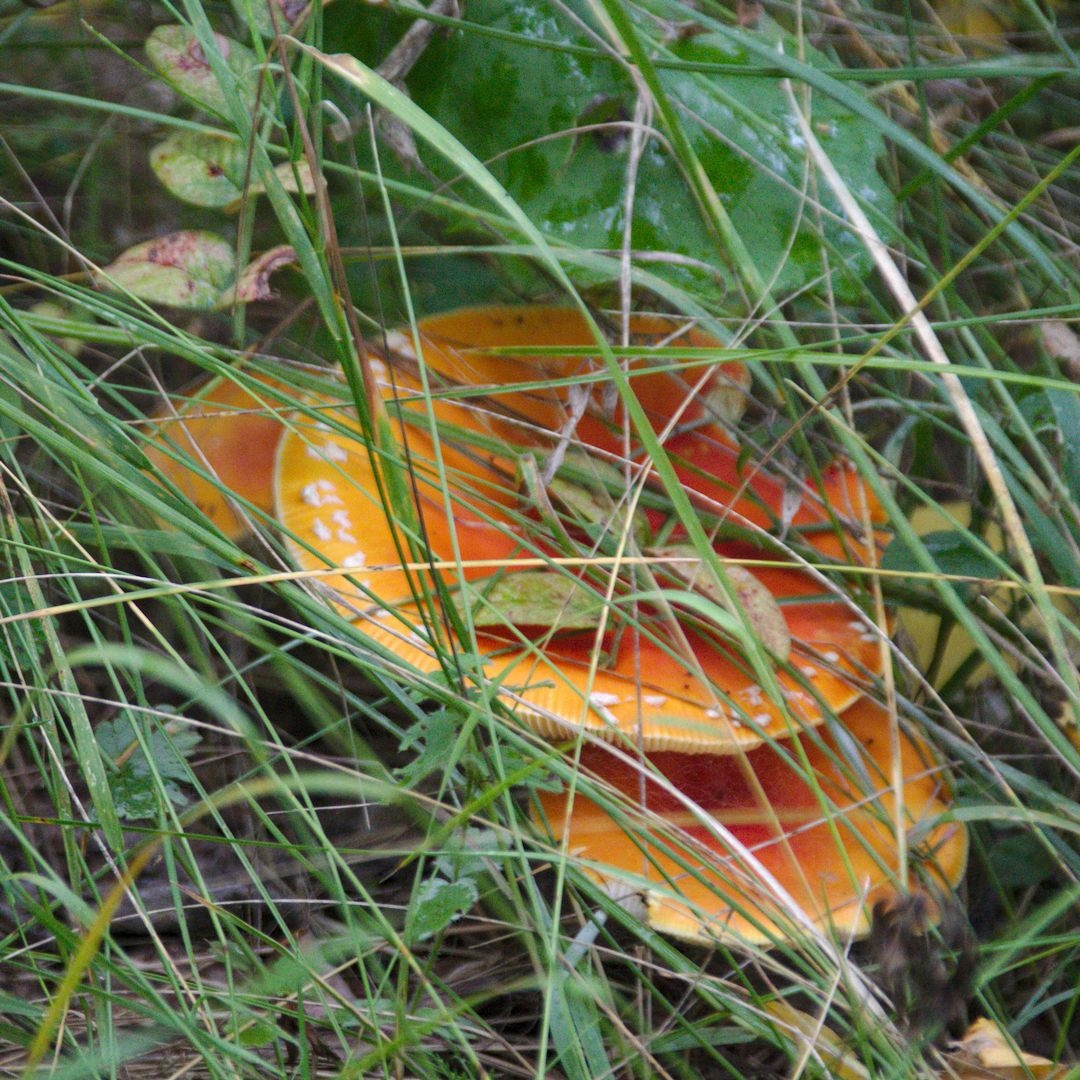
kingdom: Fungi
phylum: Basidiomycota
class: Agaricomycetes
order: Agaricales
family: Amanitaceae
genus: Amanita
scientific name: Amanita muscaria
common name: Fly agaric
